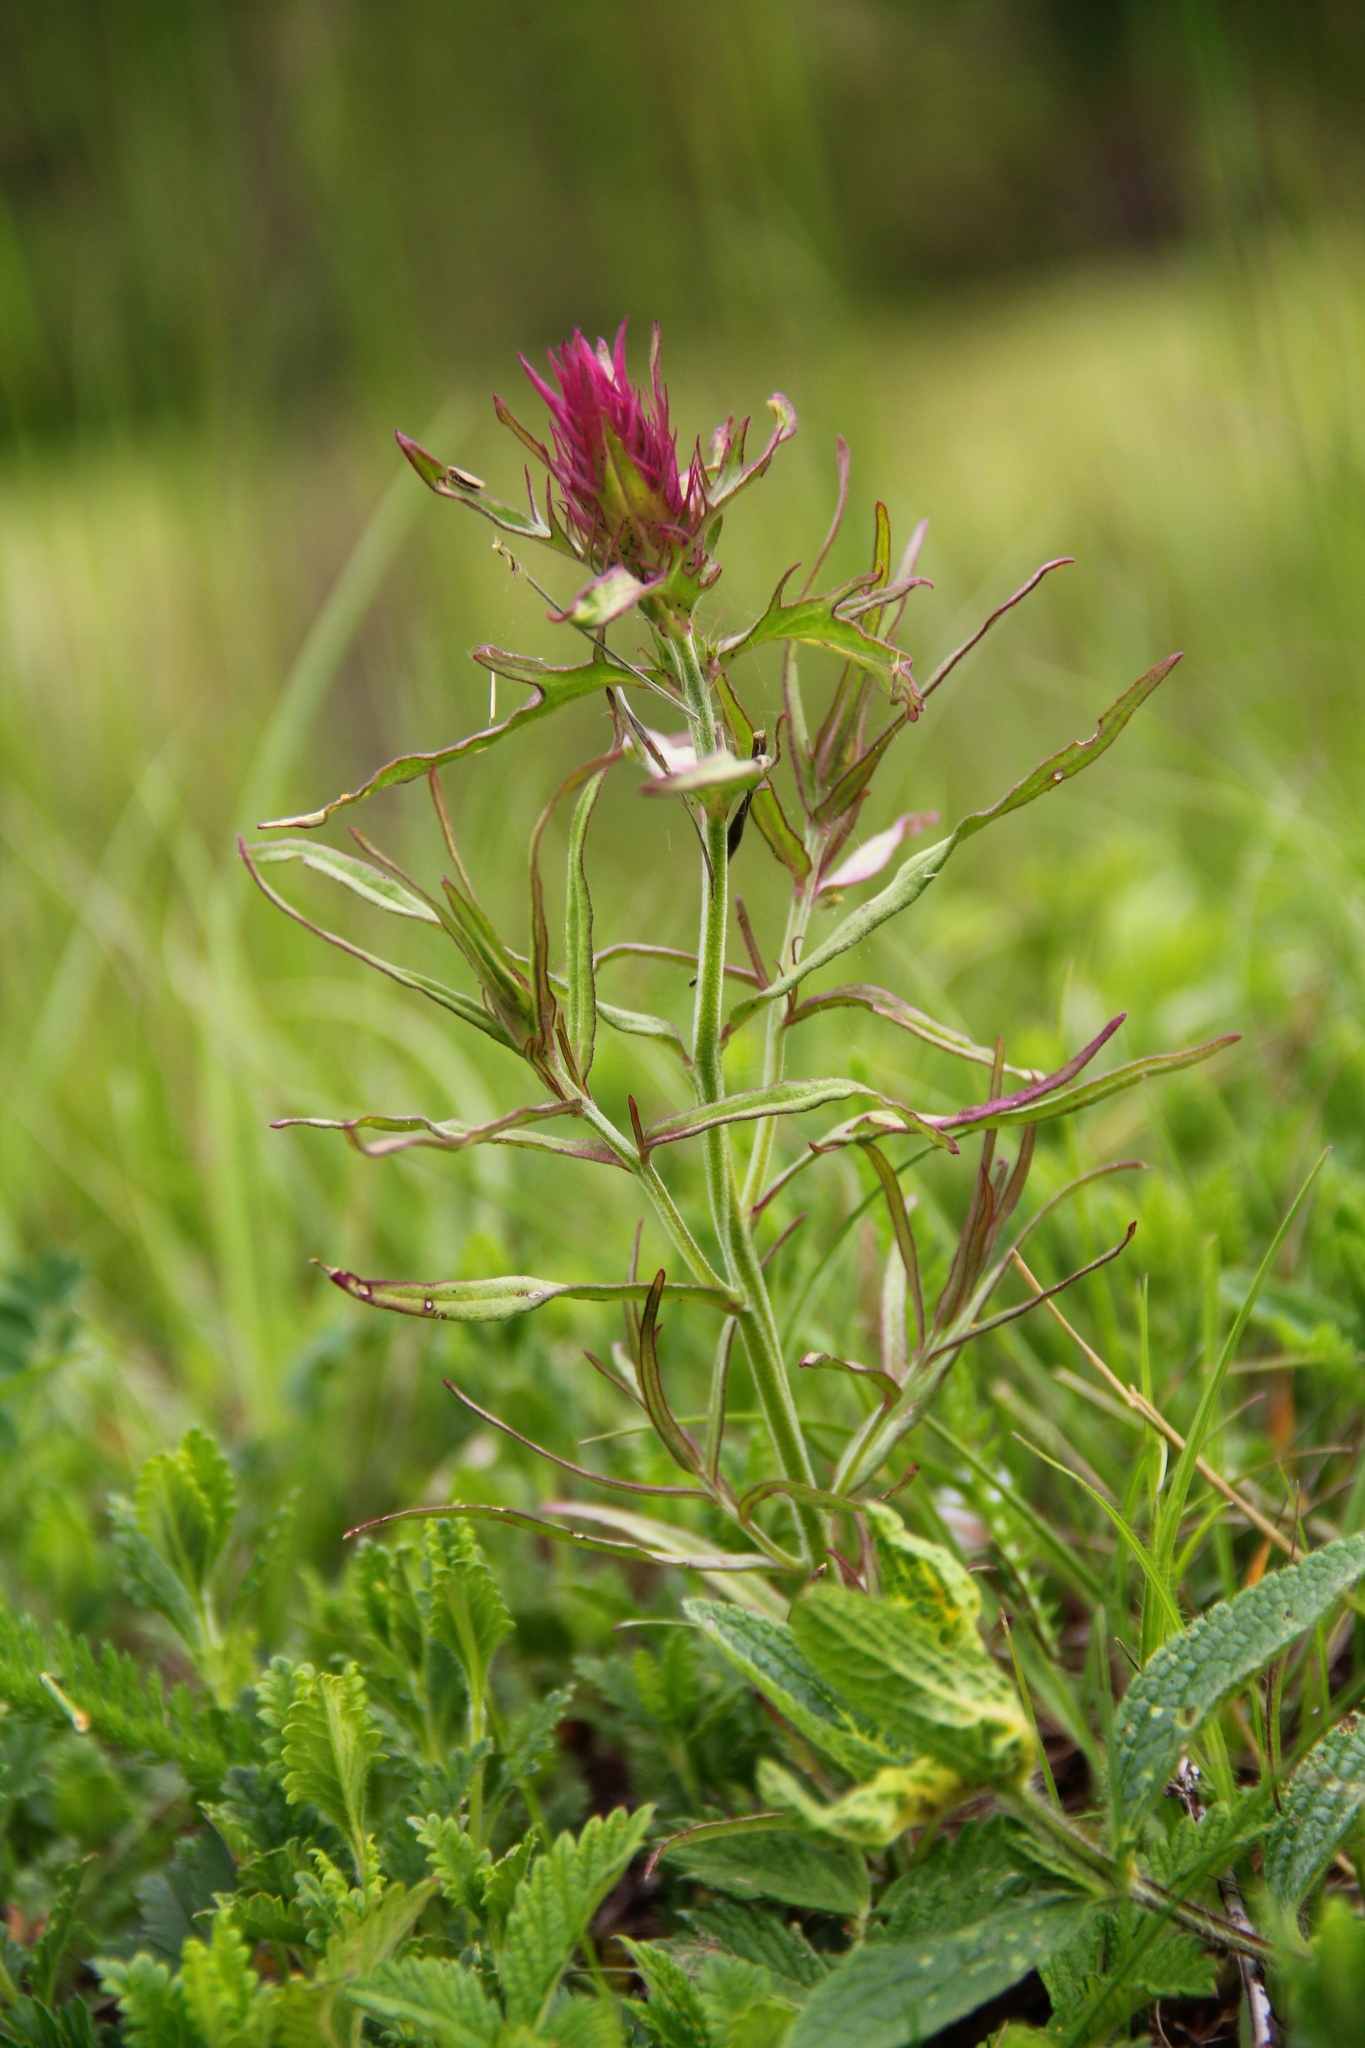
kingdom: Plantae
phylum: Tracheophyta
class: Magnoliopsida
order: Lamiales
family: Orobanchaceae
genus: Melampyrum
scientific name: Melampyrum arvense
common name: Field cow-wheat
